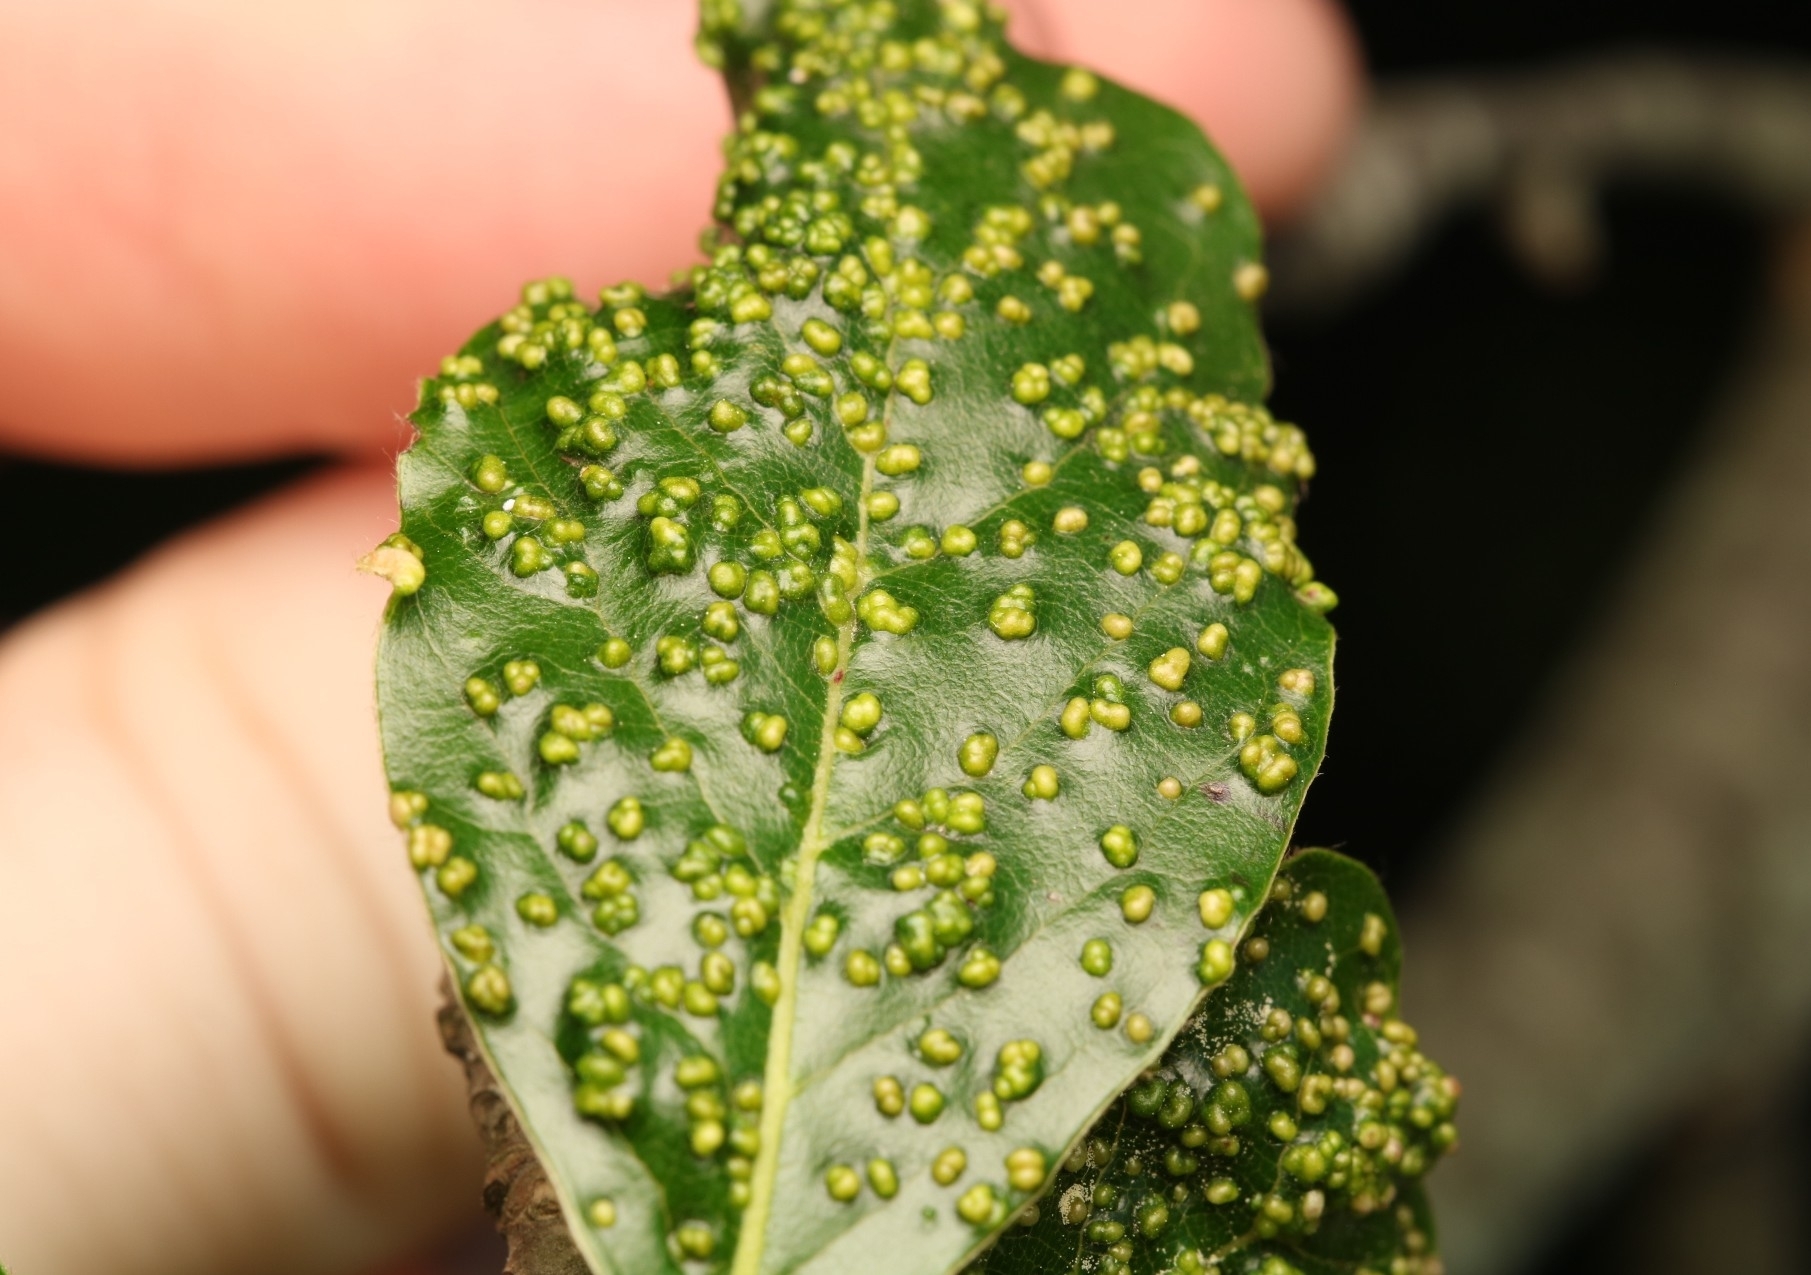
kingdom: Animalia
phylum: Arthropoda
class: Arachnida
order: Trombidiformes
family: Eriophyidae
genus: Aceria
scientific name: Aceria
